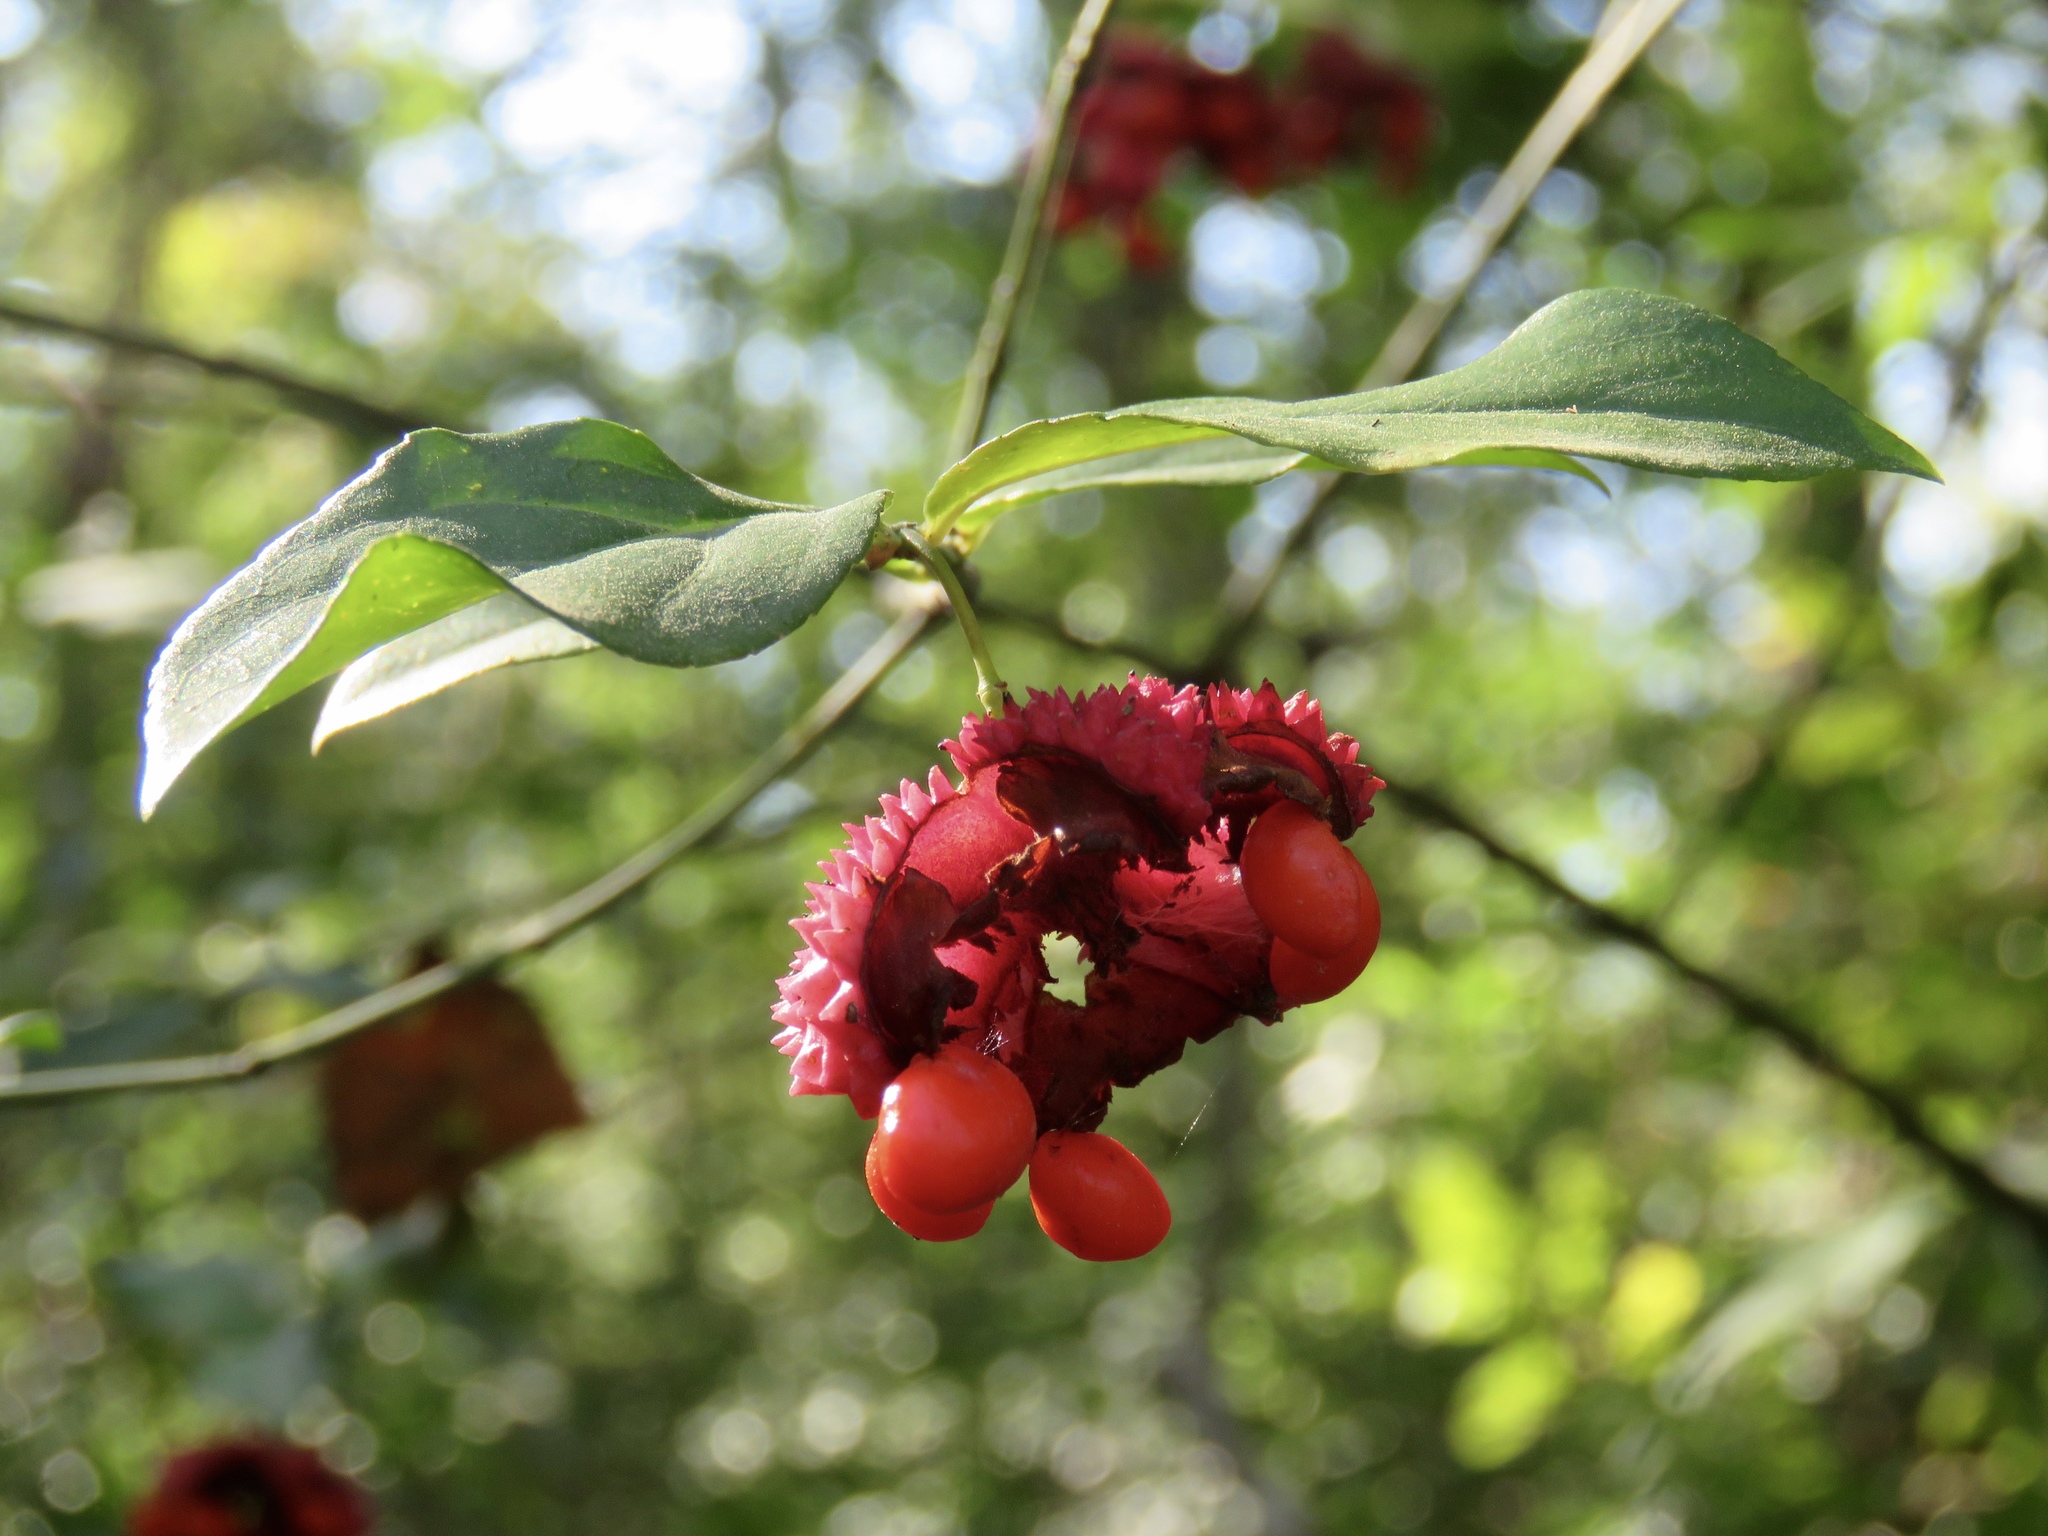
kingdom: Plantae
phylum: Tracheophyta
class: Magnoliopsida
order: Celastrales
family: Celastraceae
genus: Euonymus
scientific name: Euonymus americanus
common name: Bursting-heart
